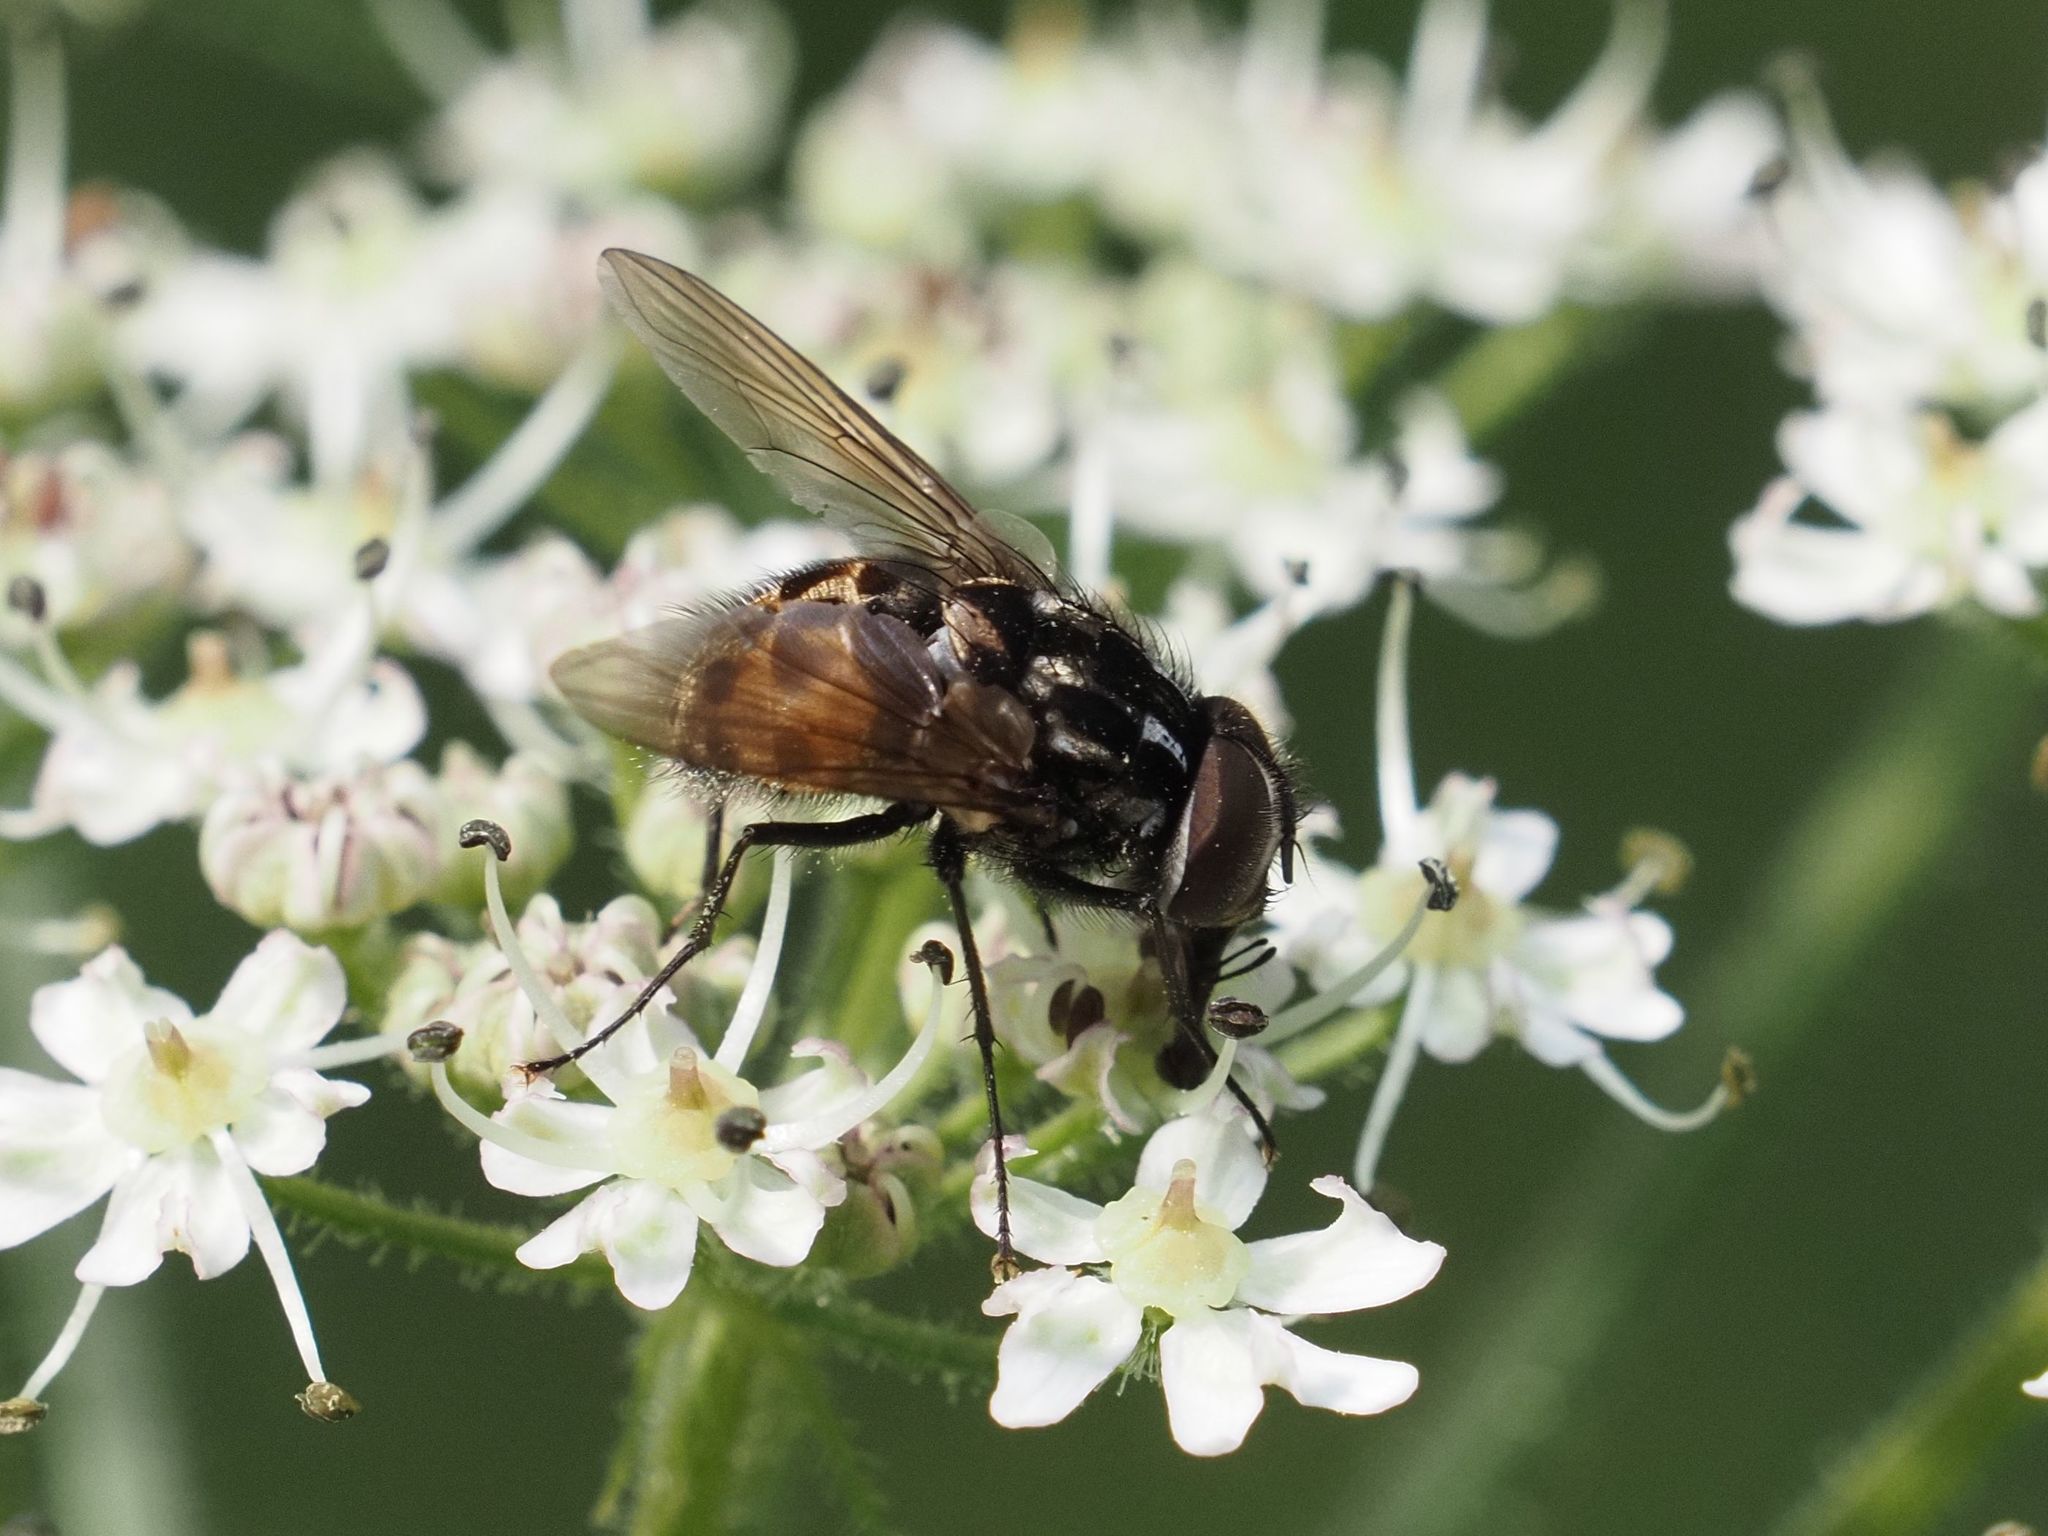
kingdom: Animalia
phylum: Arthropoda
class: Insecta
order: Diptera
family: Muscidae
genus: Graphomya
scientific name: Graphomya maculata
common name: Muscid fly
